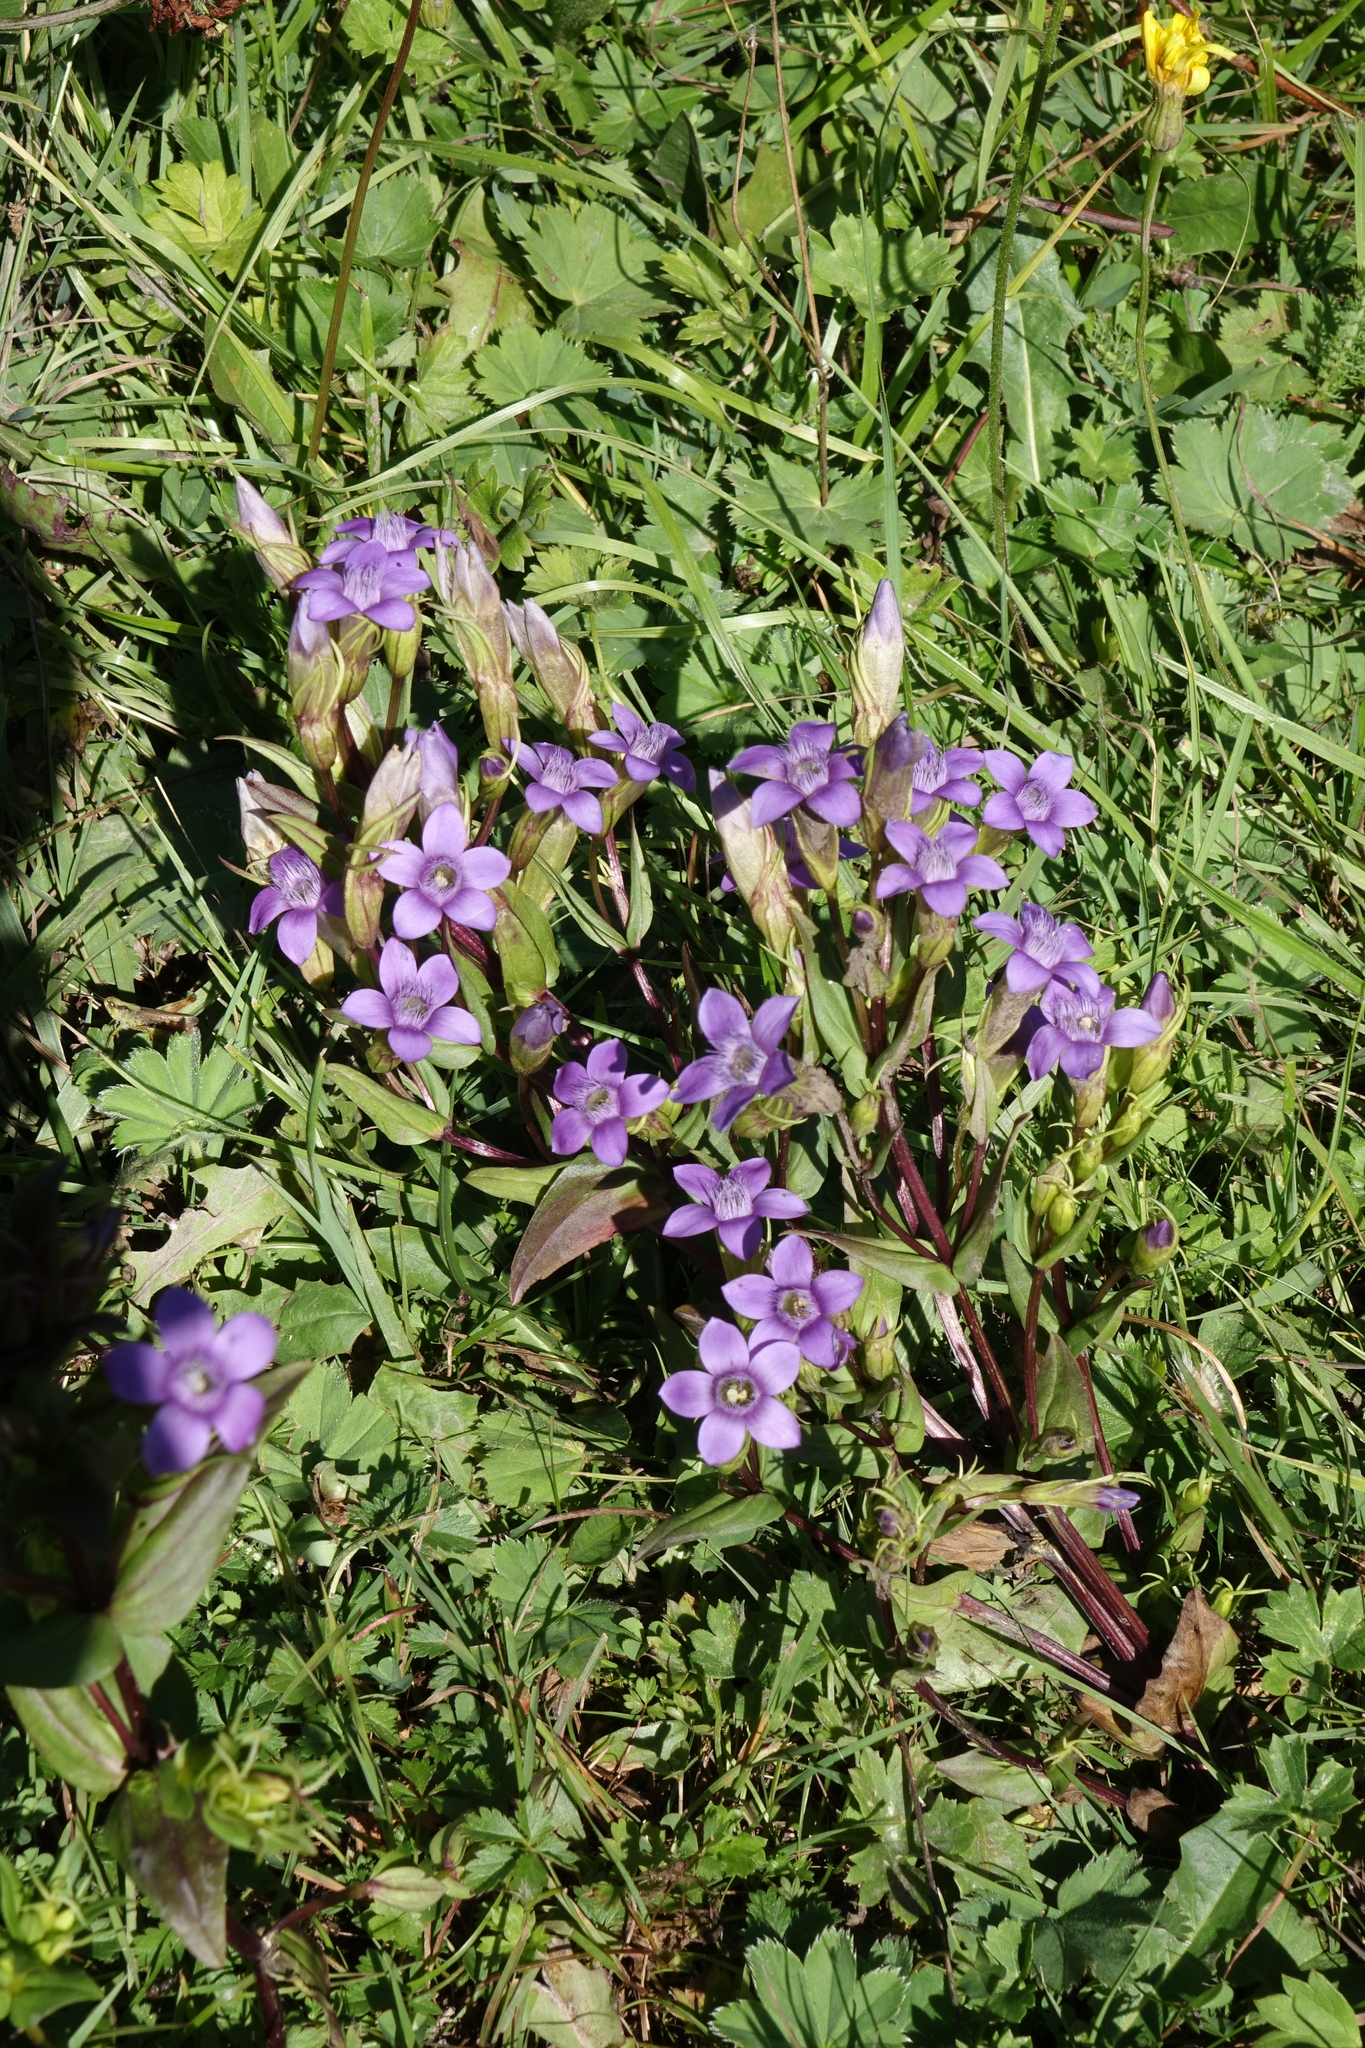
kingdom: Plantae
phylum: Tracheophyta
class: Magnoliopsida
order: Gentianales
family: Gentianaceae
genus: Gentianella
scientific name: Gentianella caucasea
